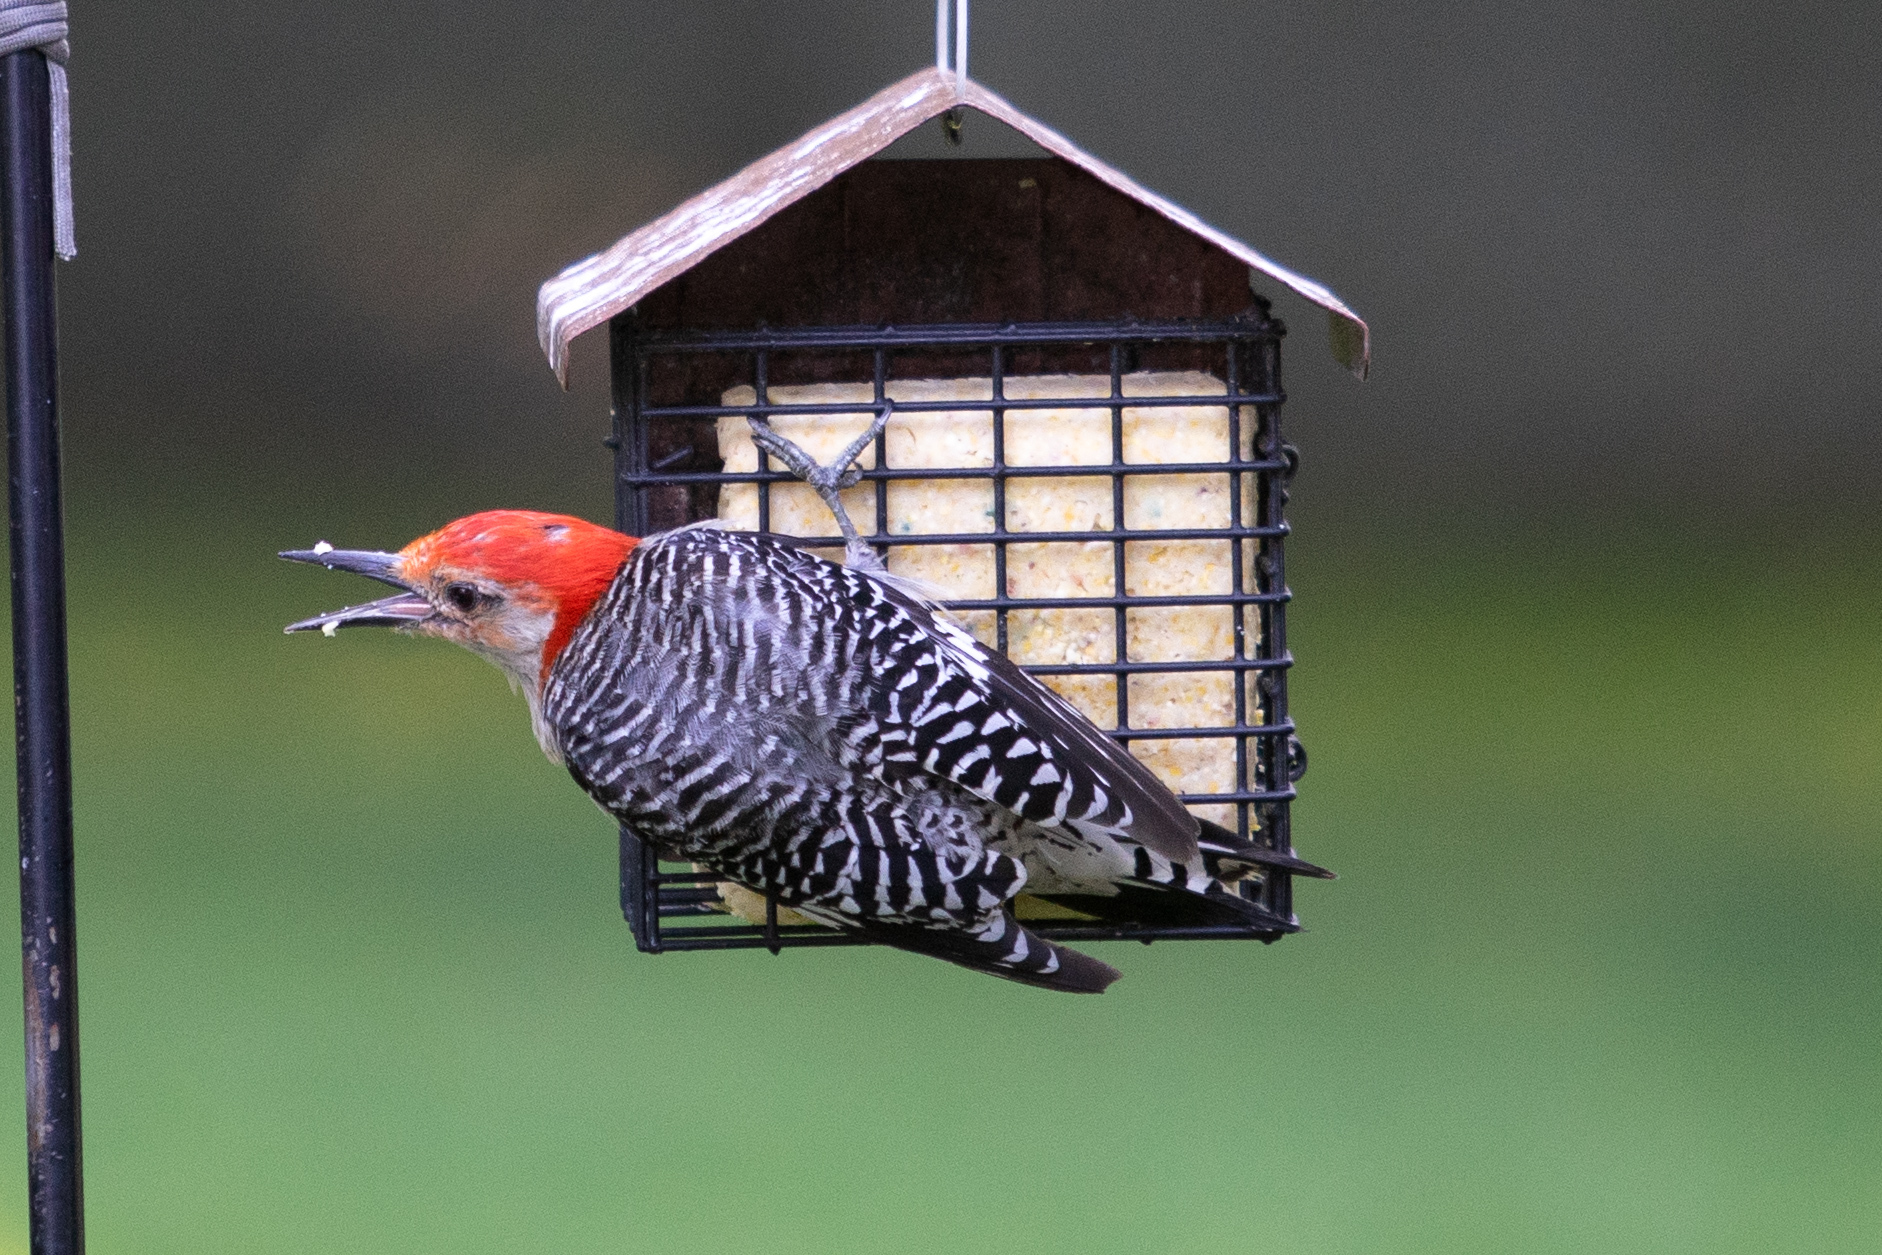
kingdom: Animalia
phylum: Chordata
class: Aves
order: Piciformes
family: Picidae
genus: Melanerpes
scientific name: Melanerpes carolinus
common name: Red-bellied woodpecker
